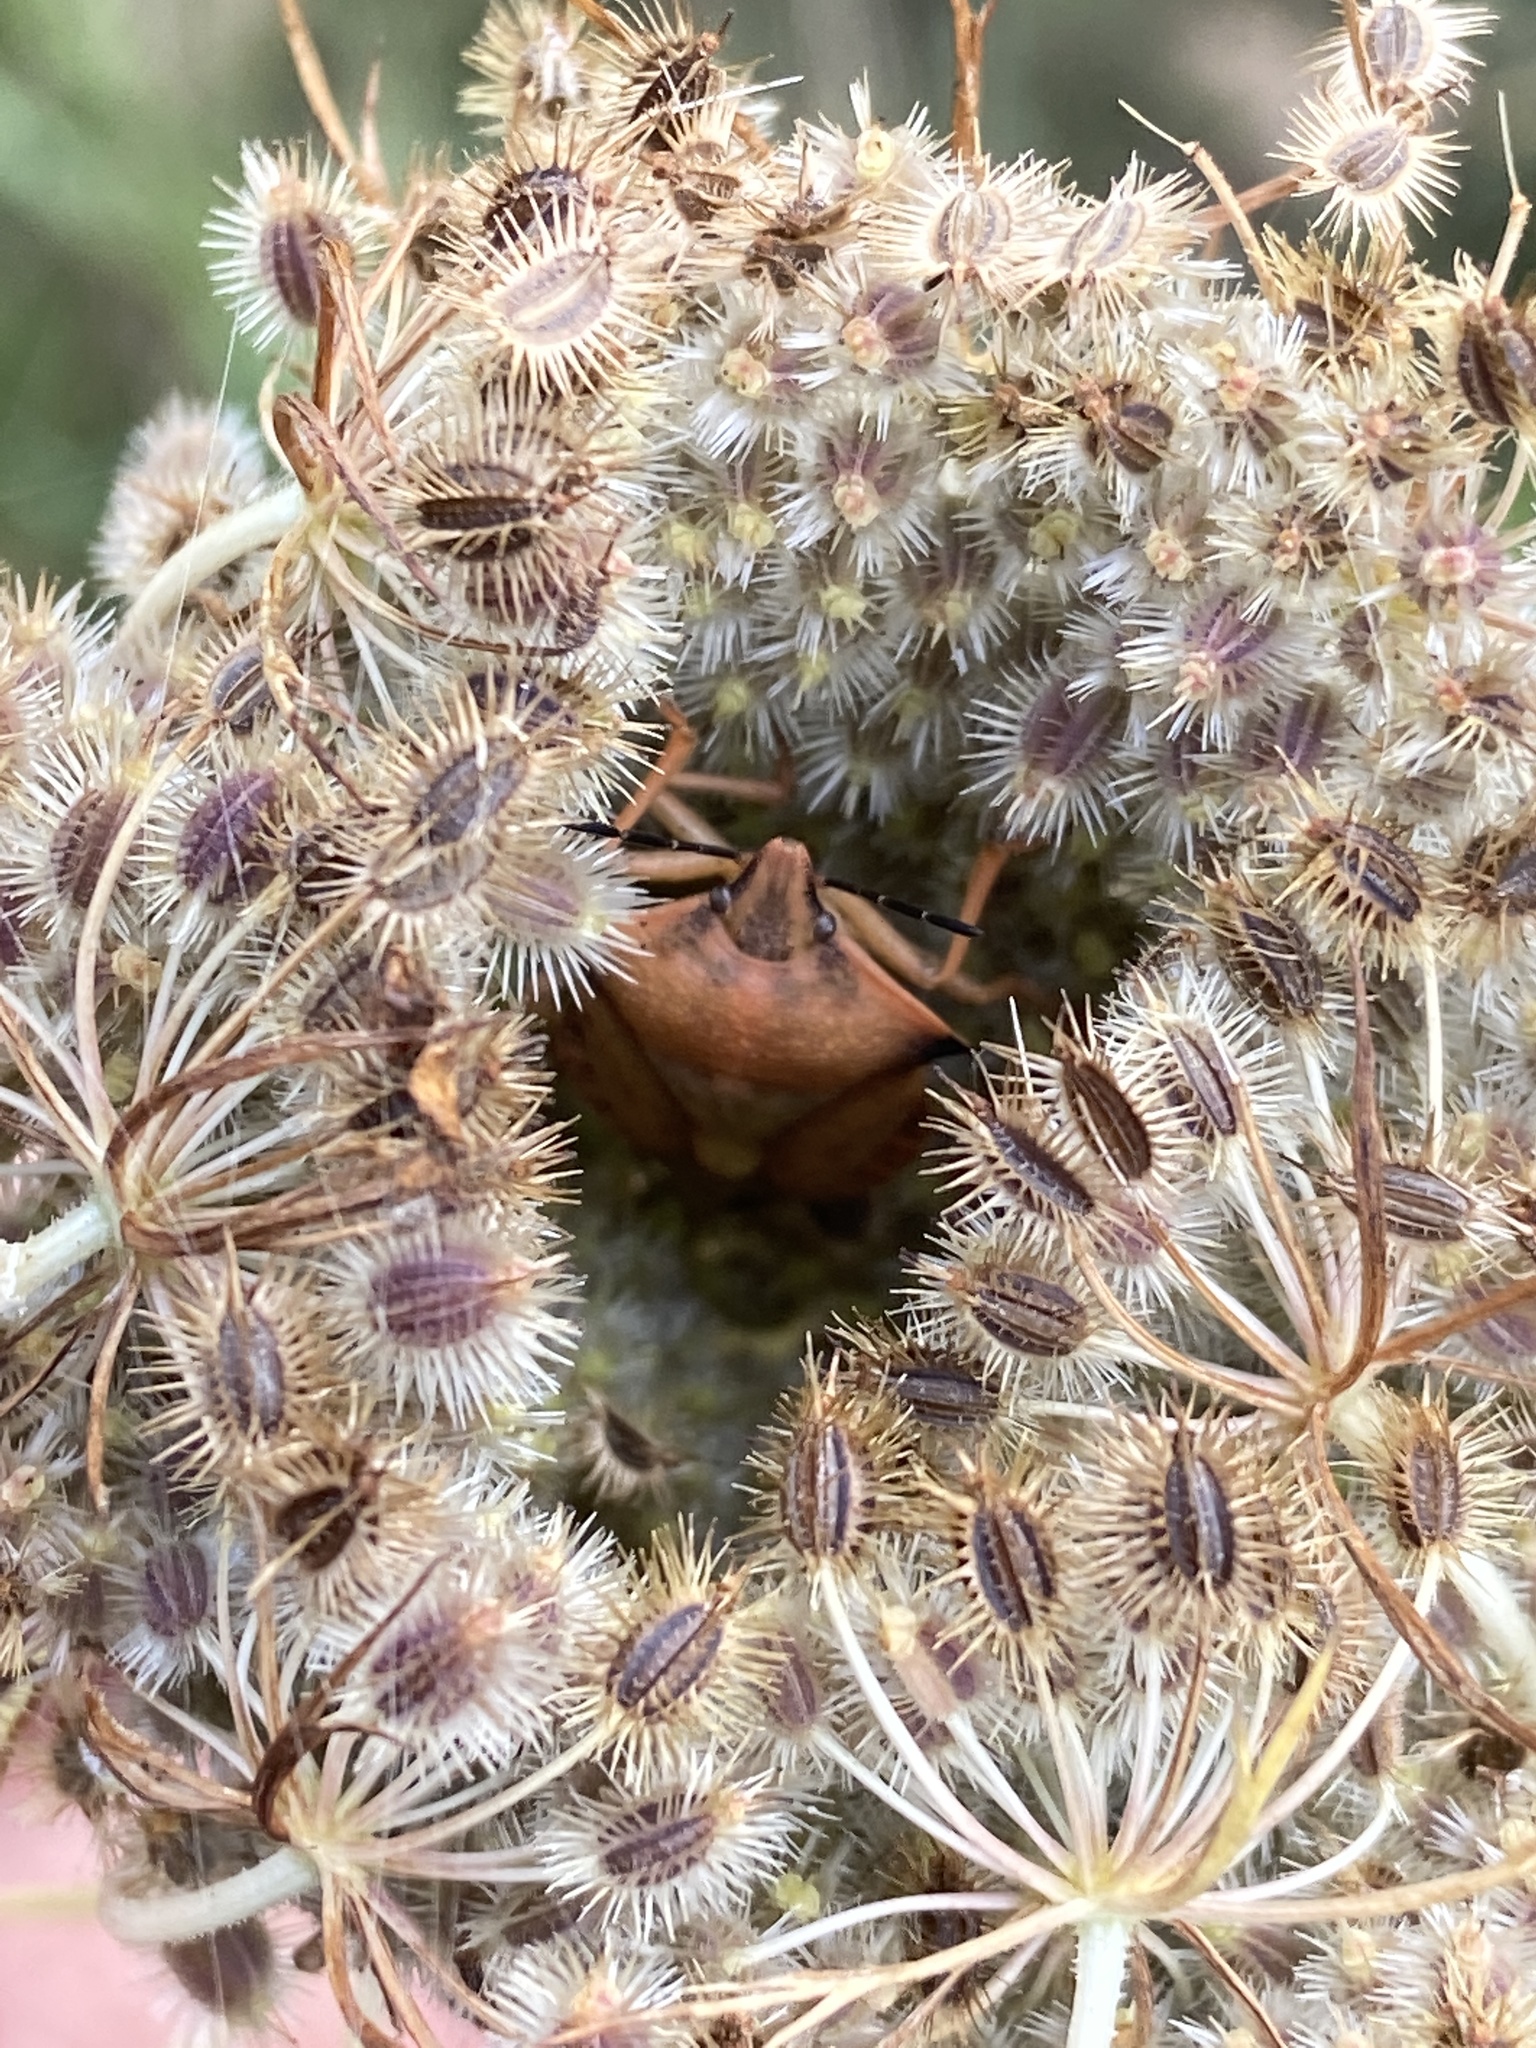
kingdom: Animalia
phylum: Arthropoda
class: Insecta
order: Hemiptera
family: Pentatomidae
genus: Carpocoris
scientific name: Carpocoris fuscispinus
